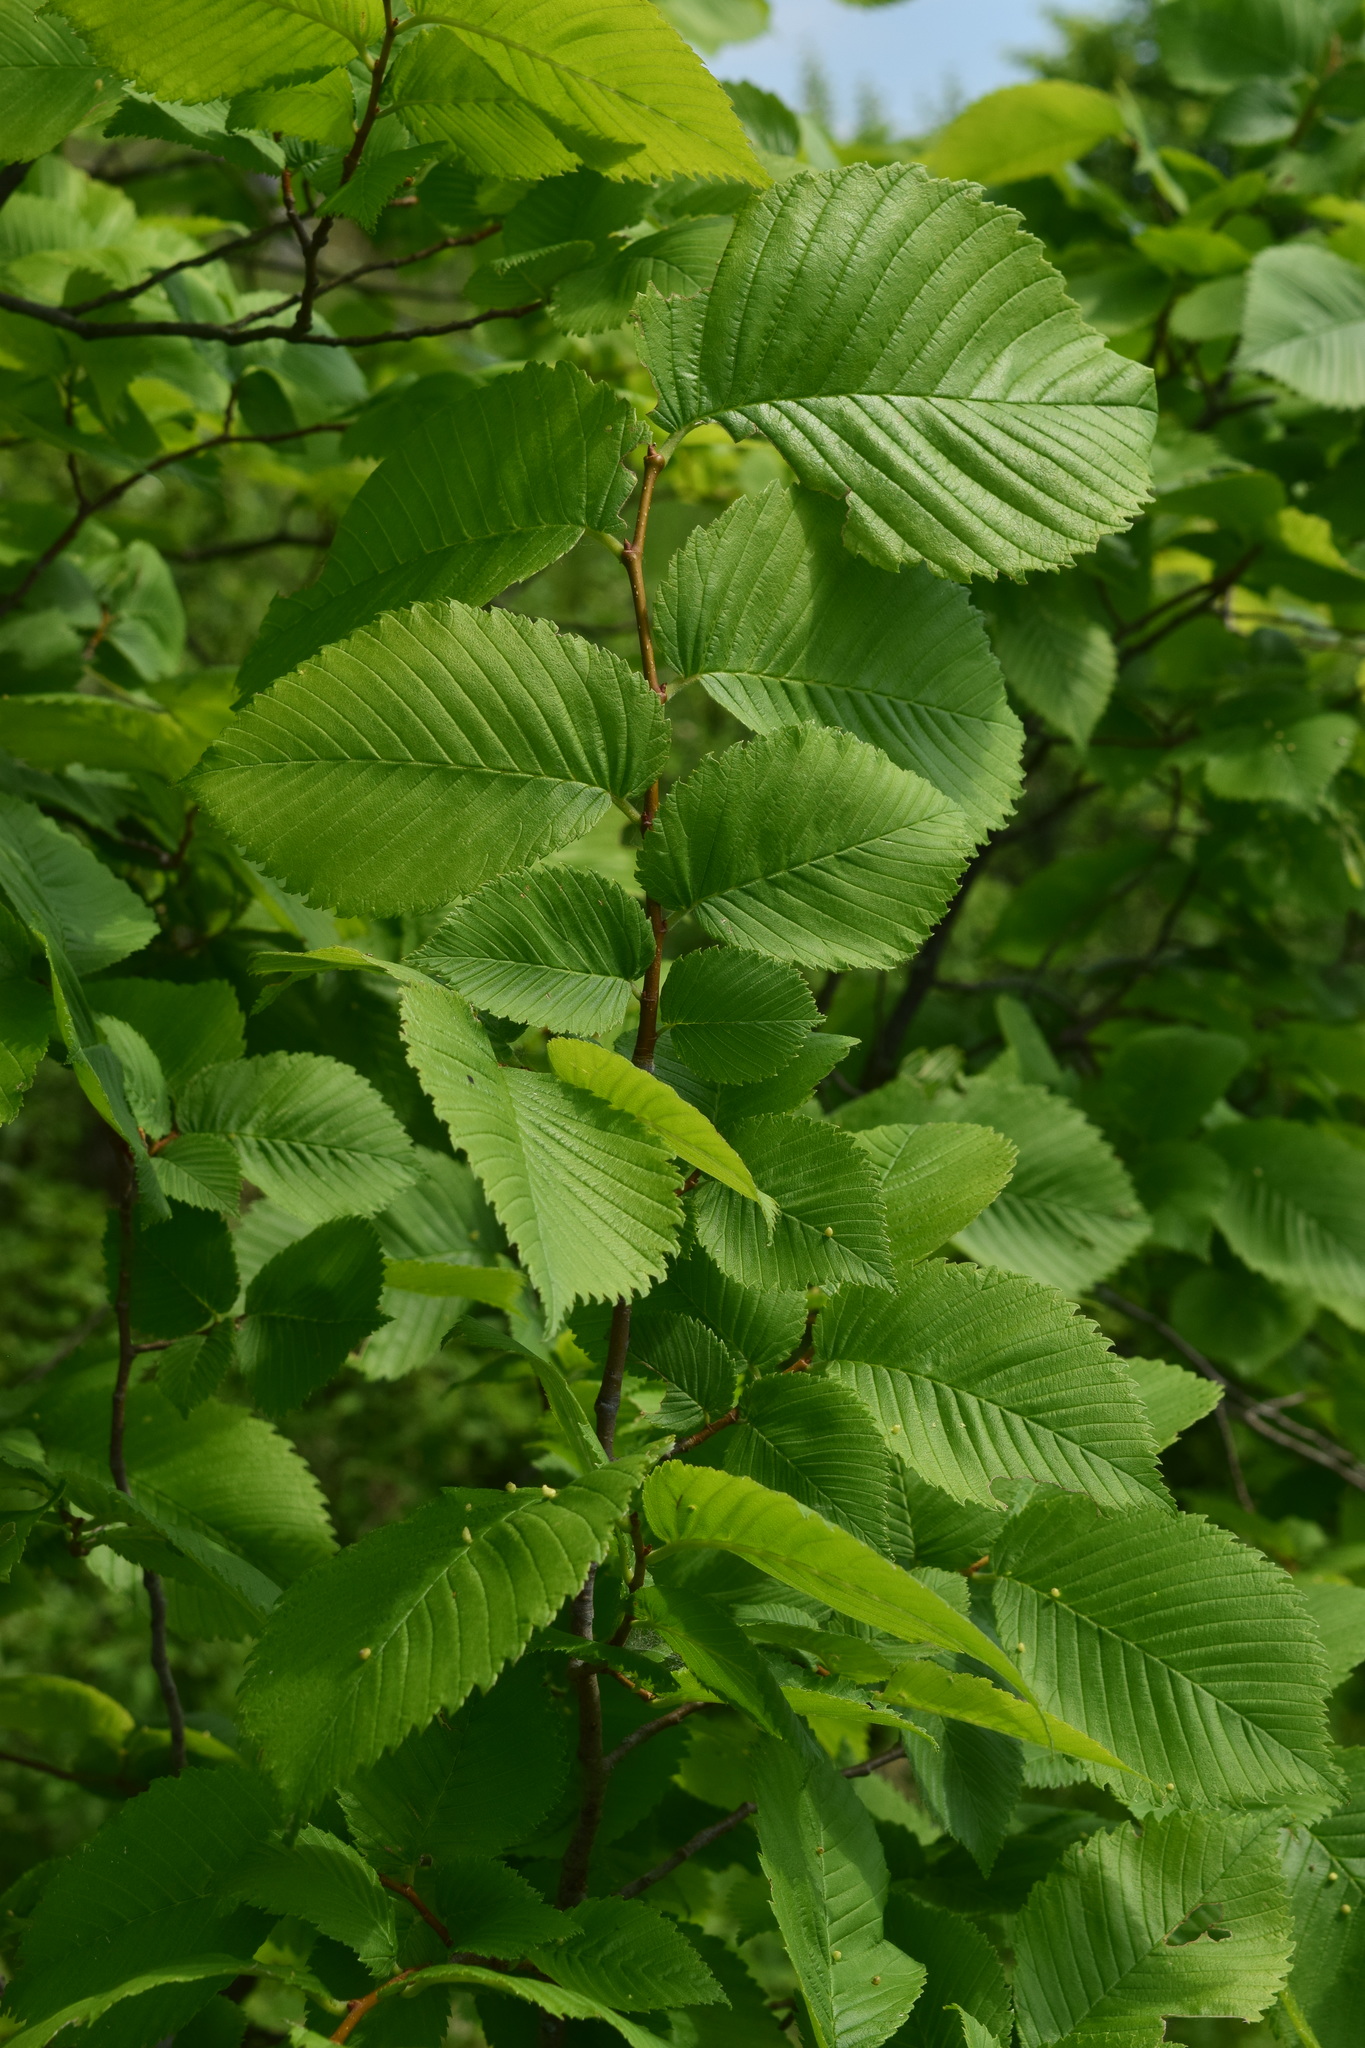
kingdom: Plantae
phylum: Tracheophyta
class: Magnoliopsida
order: Rosales
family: Ulmaceae
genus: Ulmus
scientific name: Ulmus laevis
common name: European white-elm
